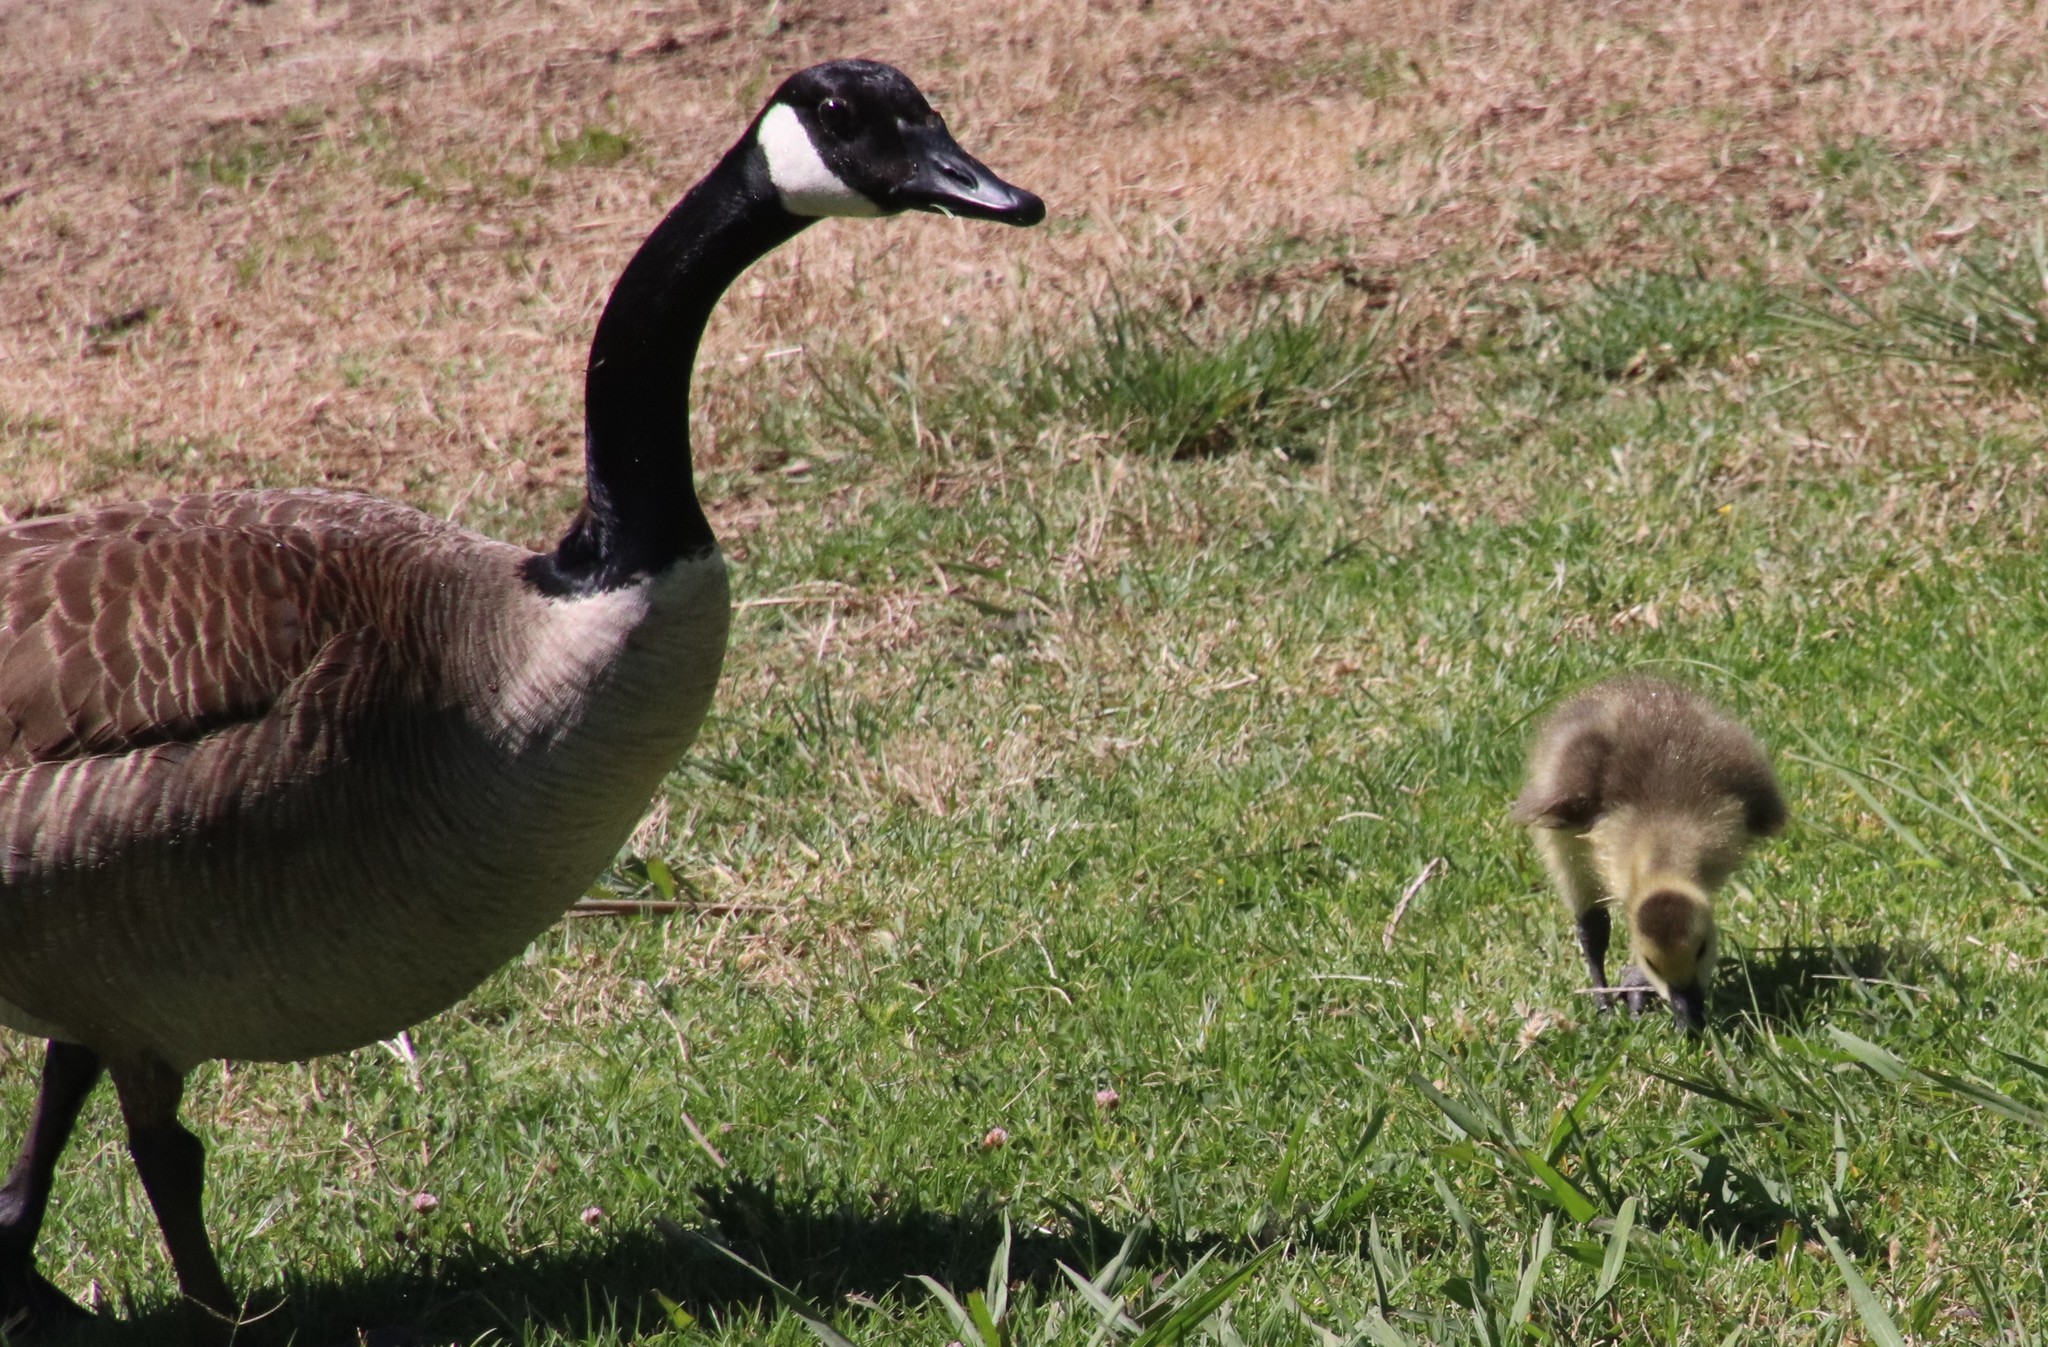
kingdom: Animalia
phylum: Chordata
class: Aves
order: Anseriformes
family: Anatidae
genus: Branta
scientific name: Branta canadensis
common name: Canada goose
